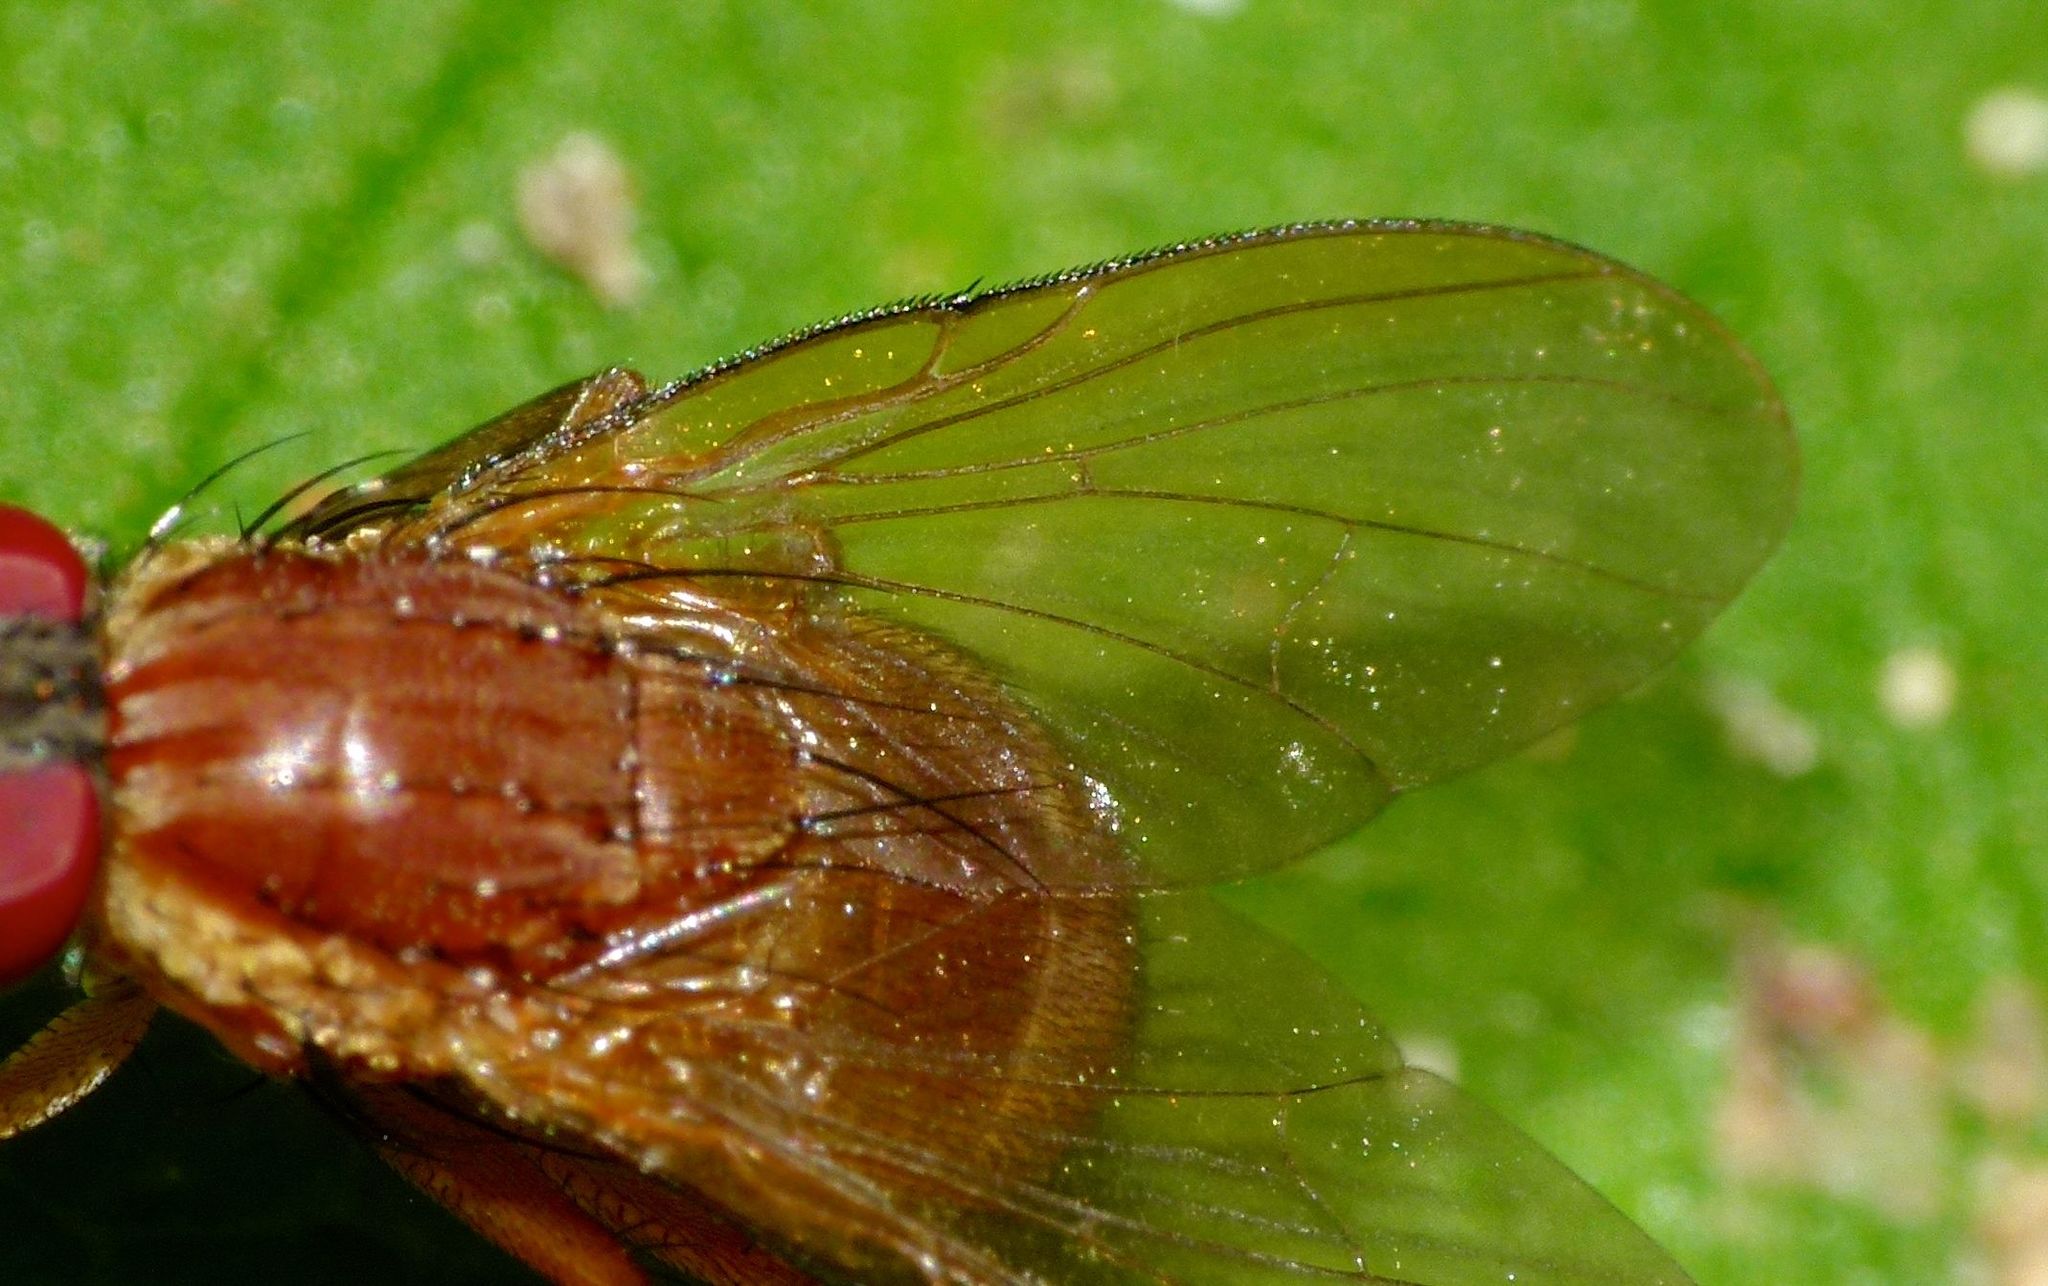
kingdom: Animalia
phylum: Arthropoda
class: Insecta
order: Diptera
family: Muscidae
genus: Dichaetomyia
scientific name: Dichaetomyia norrisi
